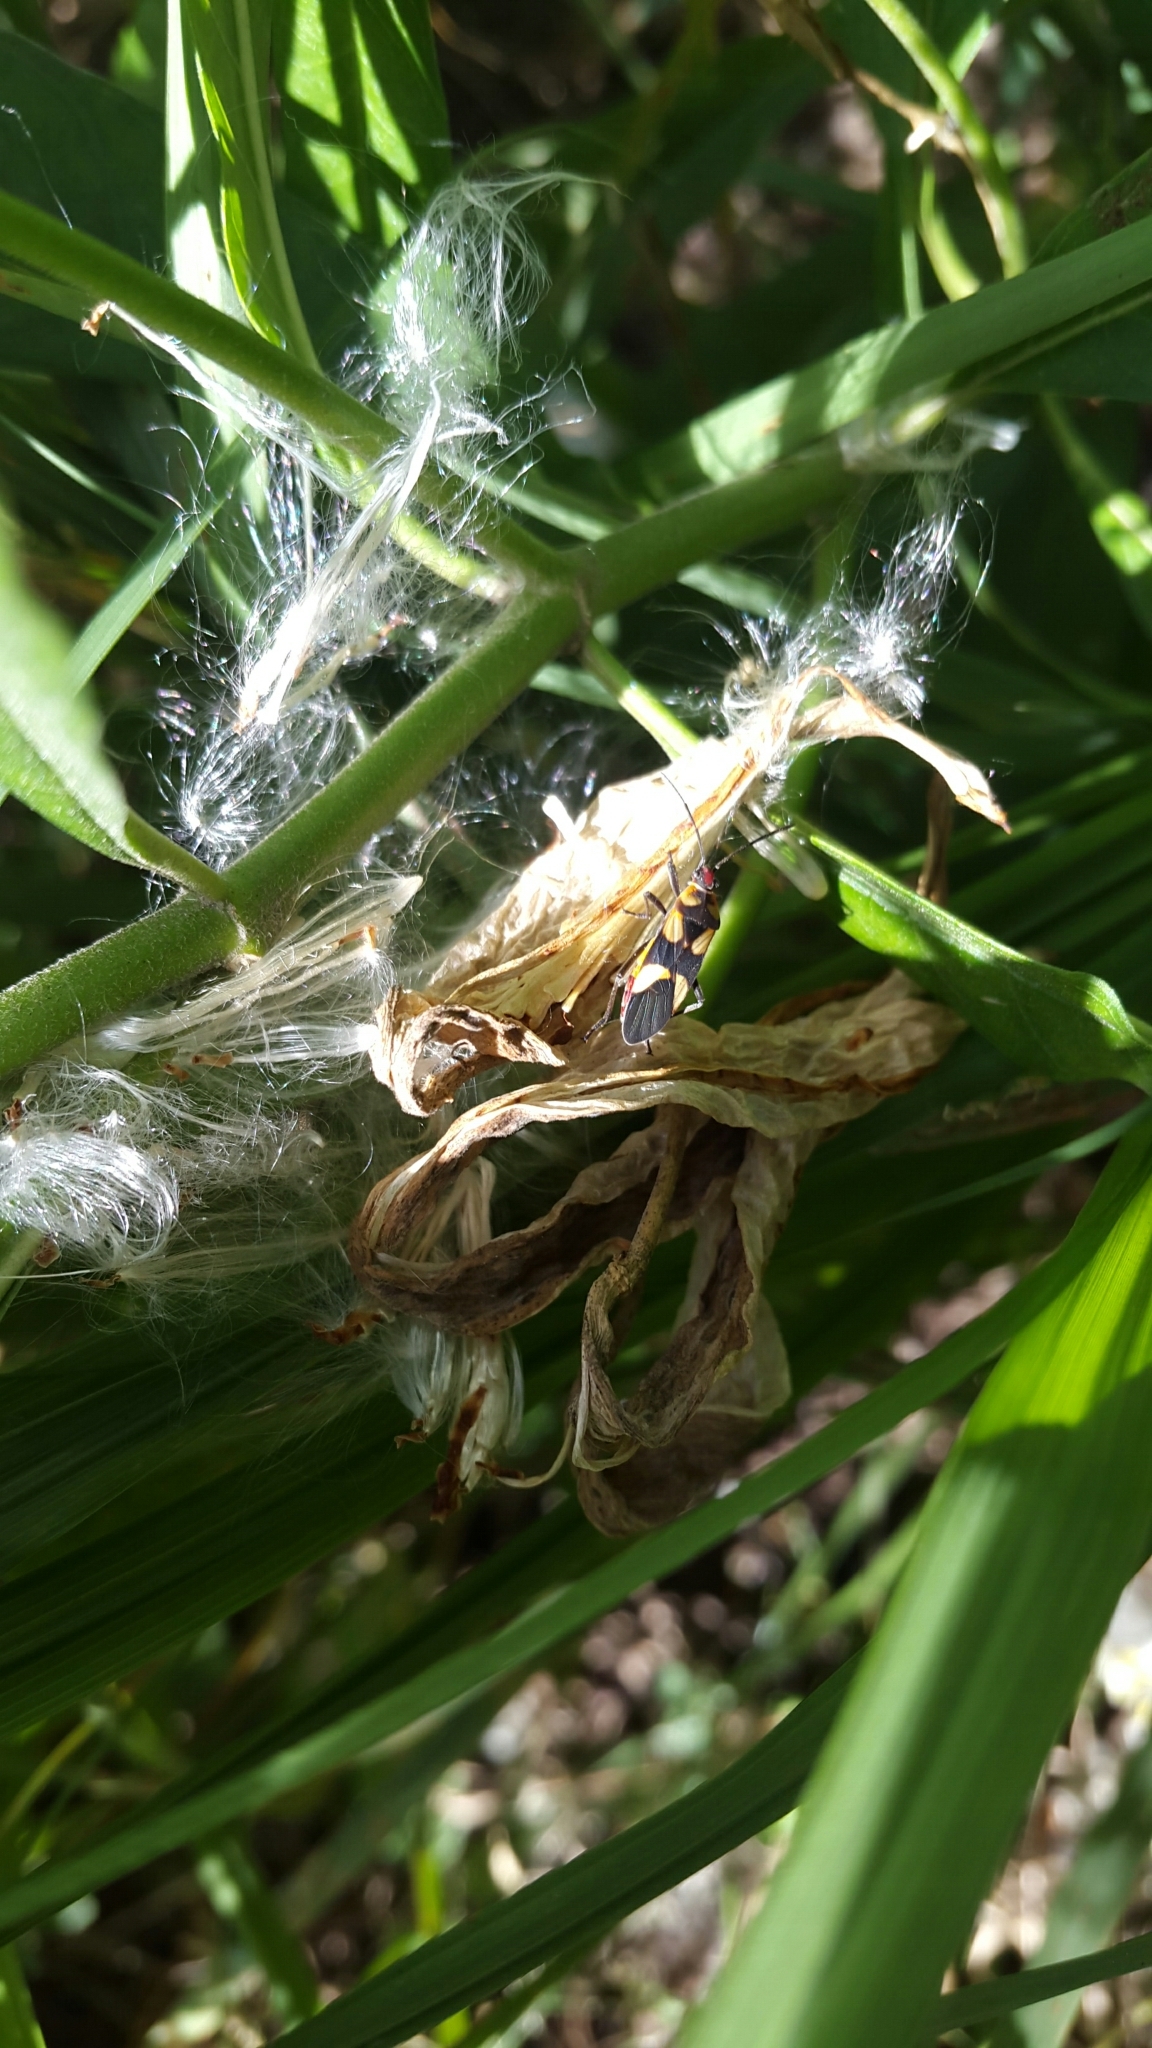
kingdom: Animalia
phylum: Arthropoda
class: Insecta
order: Hemiptera
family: Lygaeidae
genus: Oncopeltus
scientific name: Oncopeltus cingulifer
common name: Lygaeid bug
